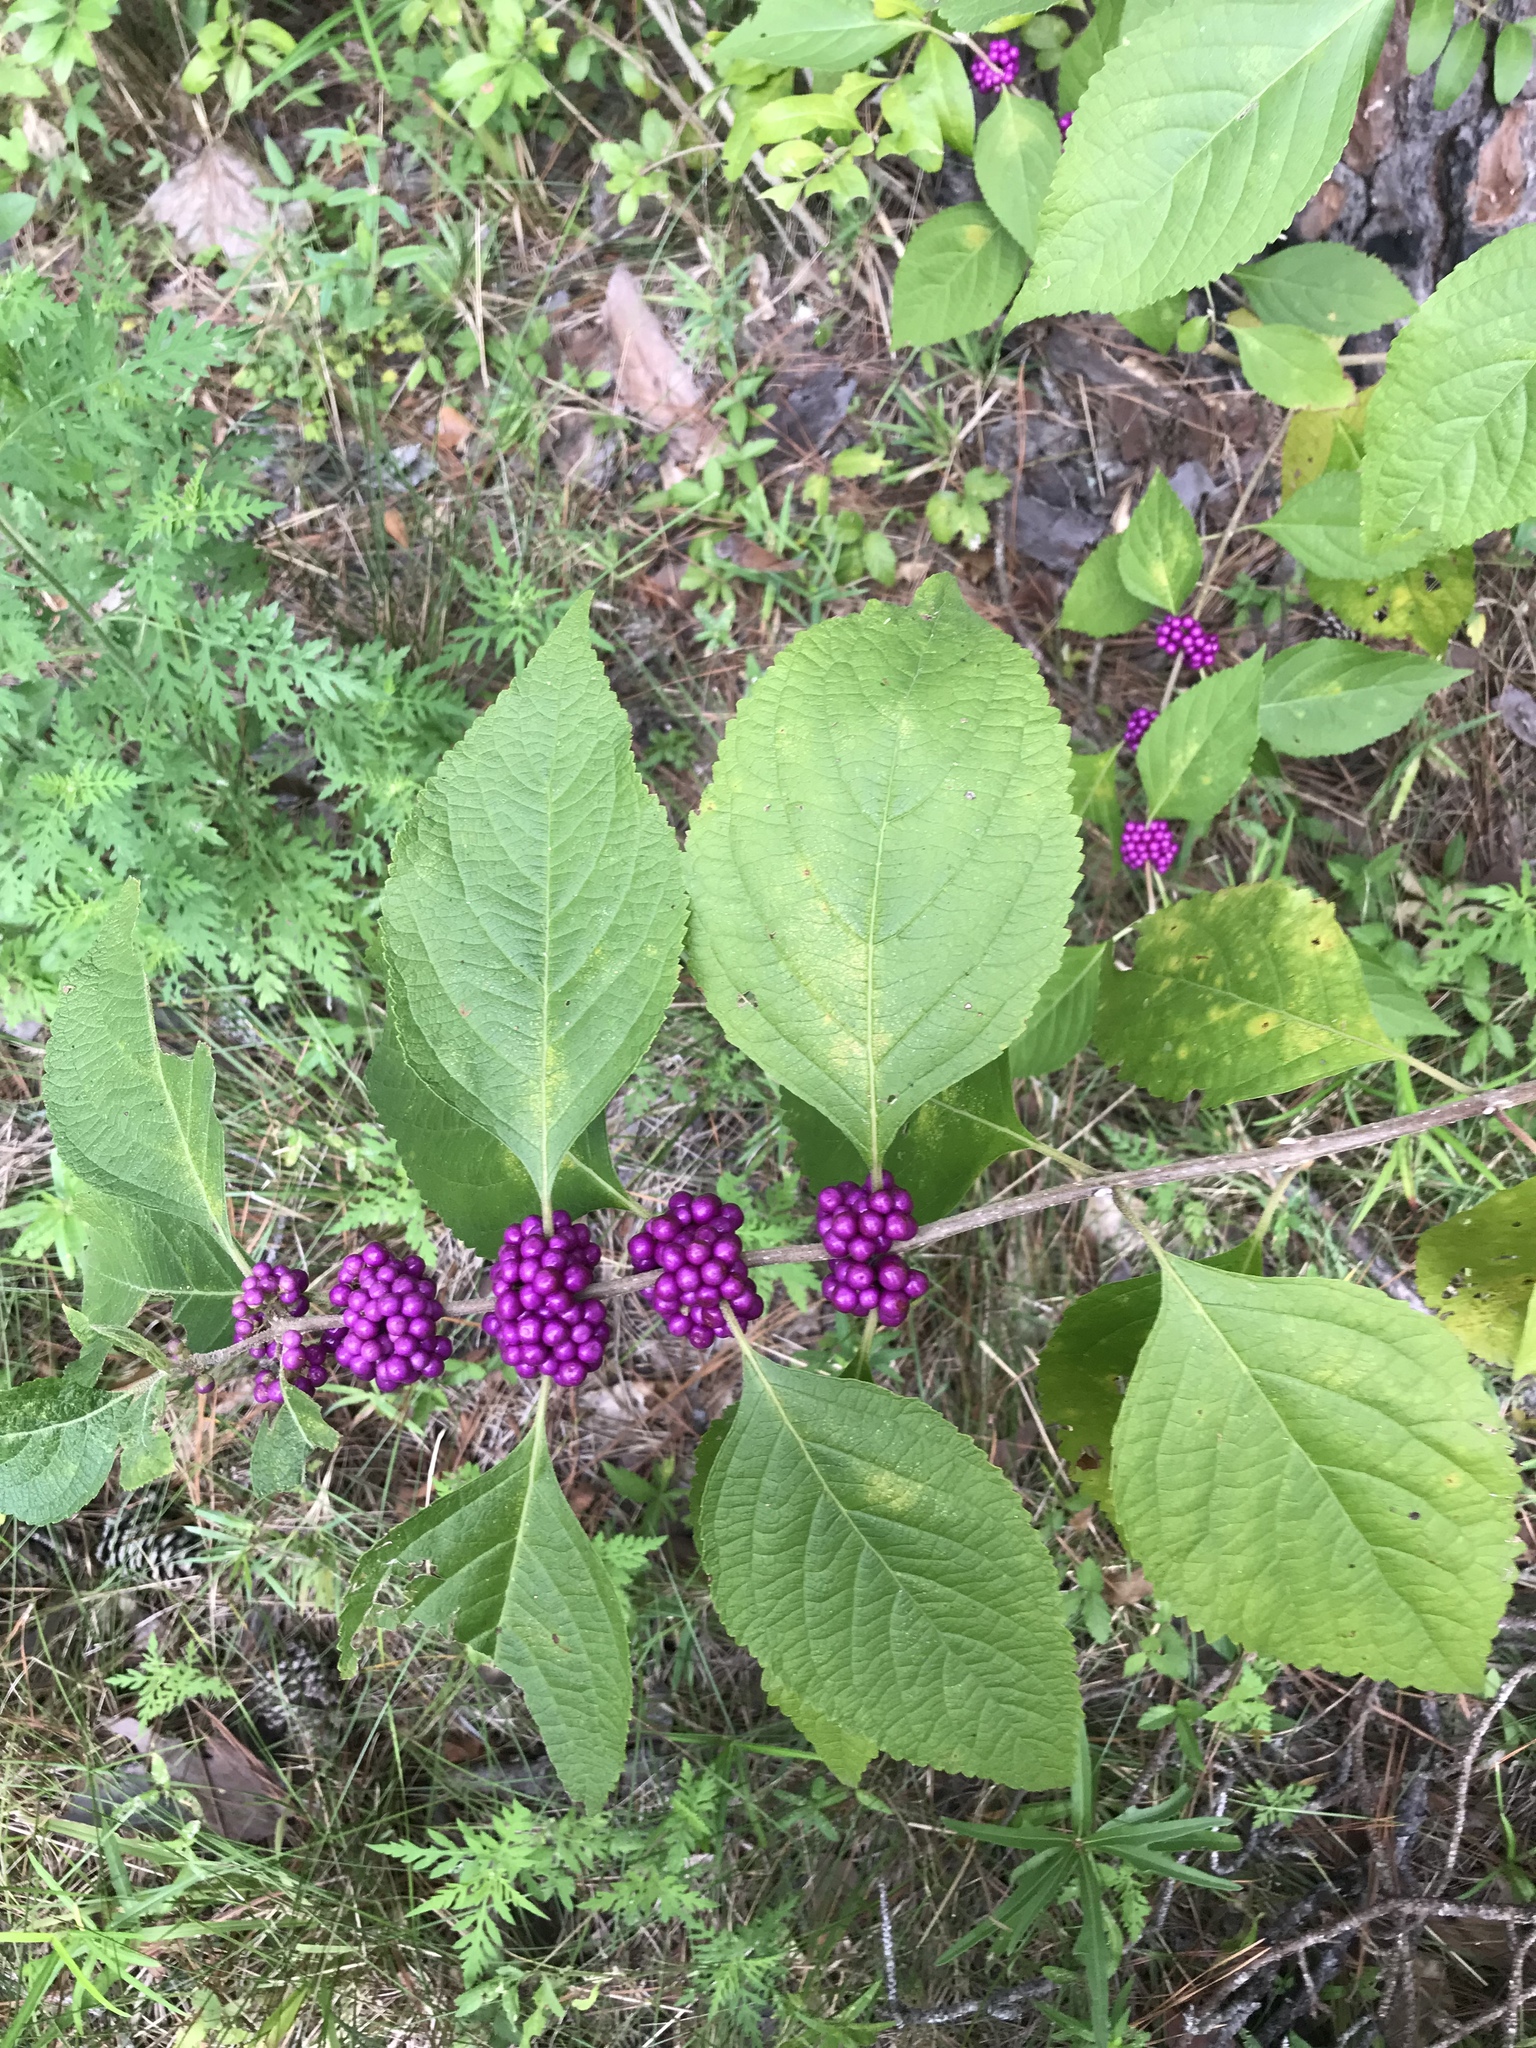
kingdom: Plantae
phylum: Tracheophyta
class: Magnoliopsida
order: Lamiales
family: Lamiaceae
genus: Callicarpa
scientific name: Callicarpa americana
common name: American beautyberry
